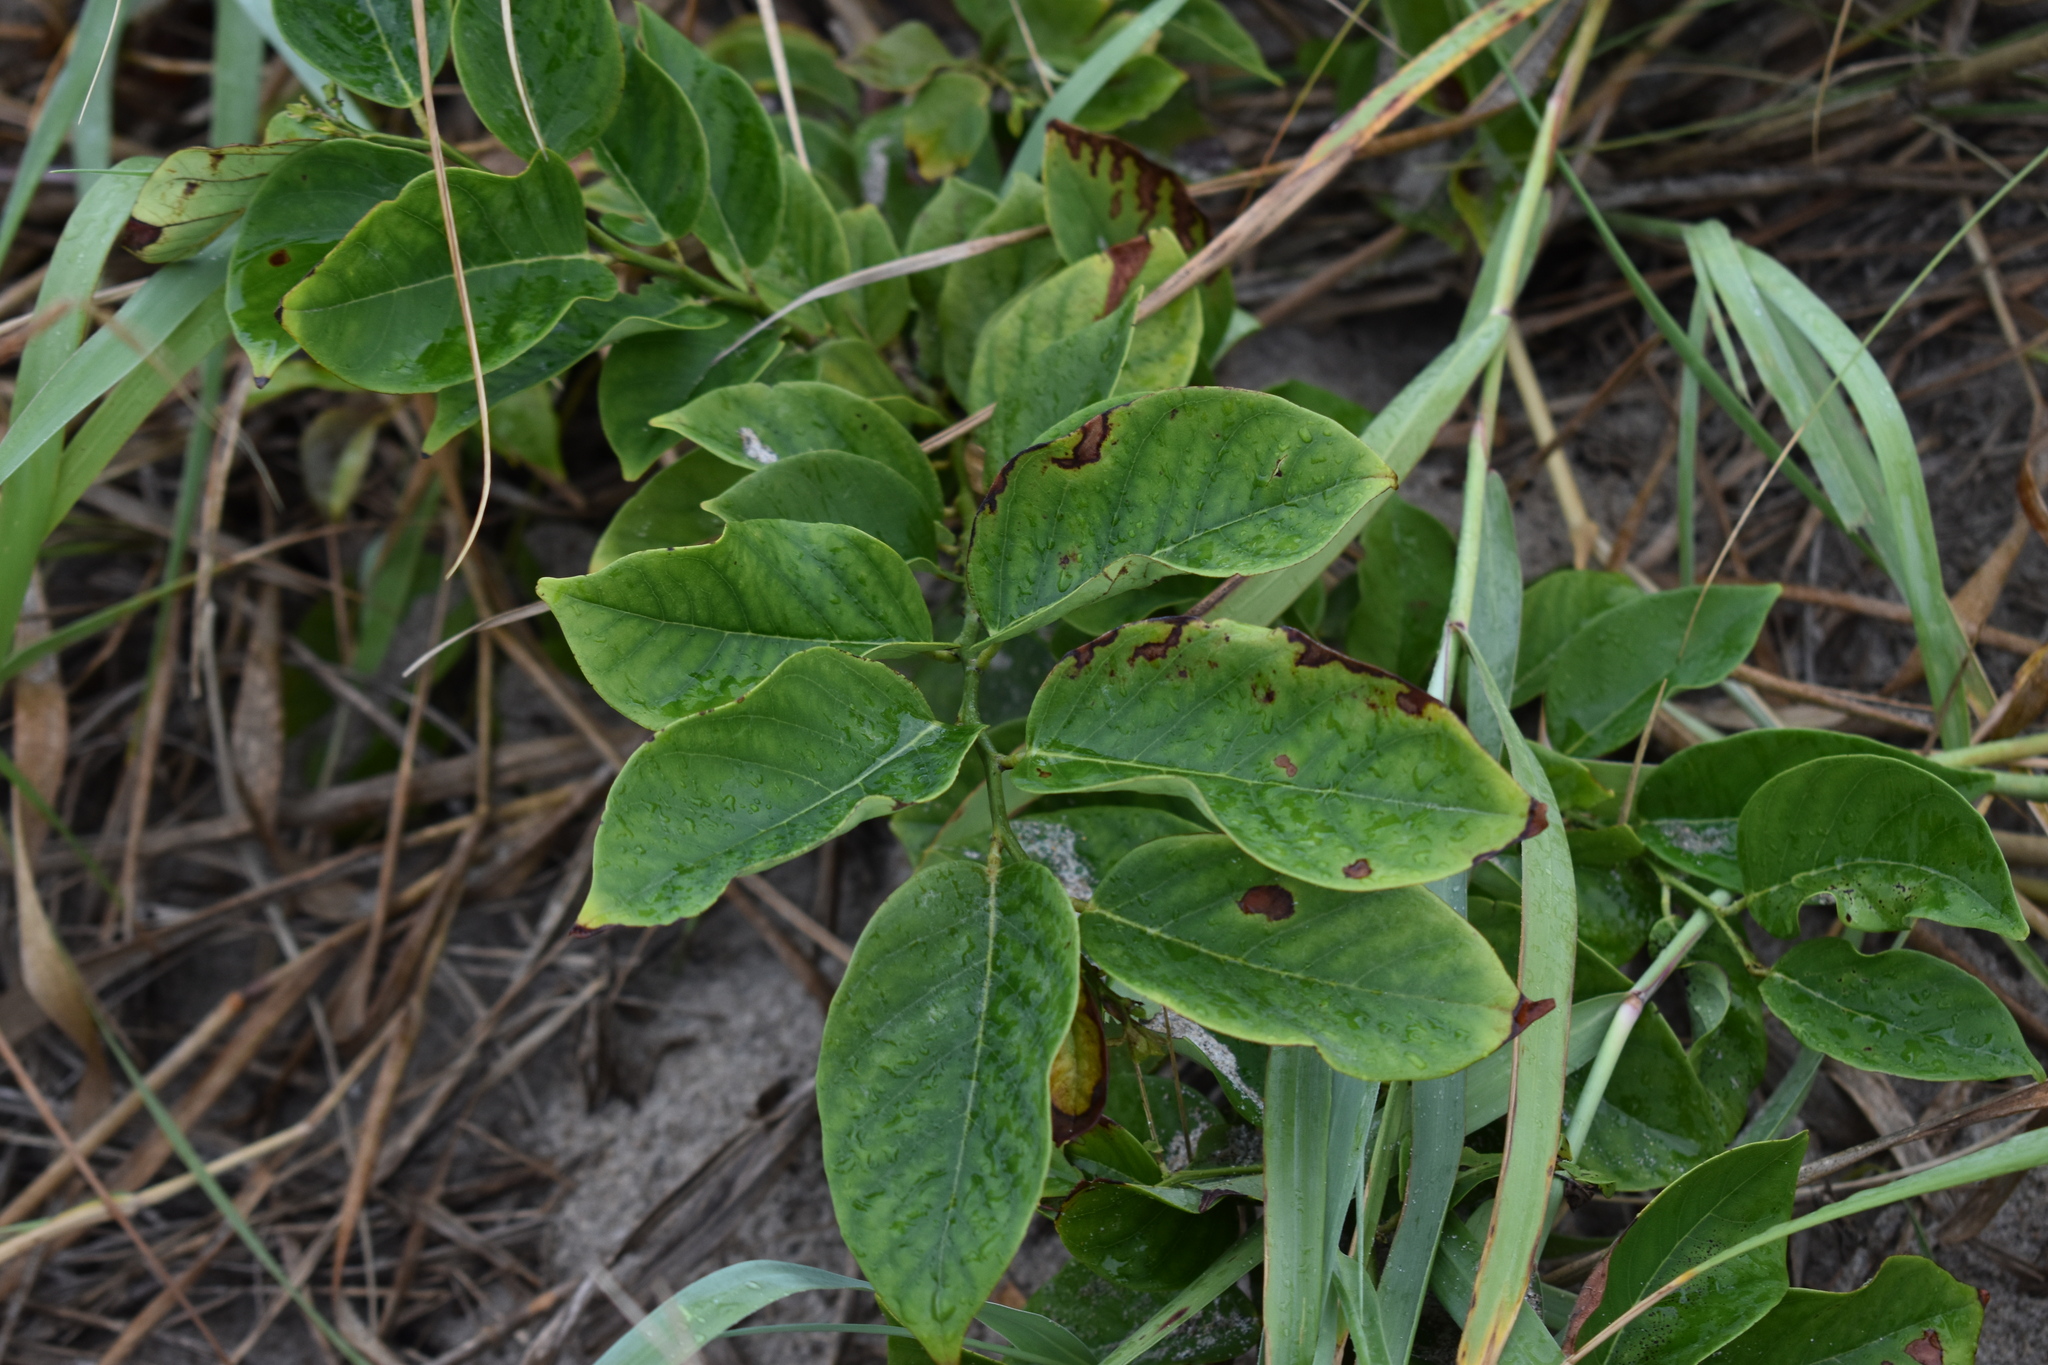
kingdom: Plantae
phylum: Tracheophyta
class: Magnoliopsida
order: Fabales
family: Fabaceae
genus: Dalbergia
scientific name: Dalbergia ecastaphyllum
